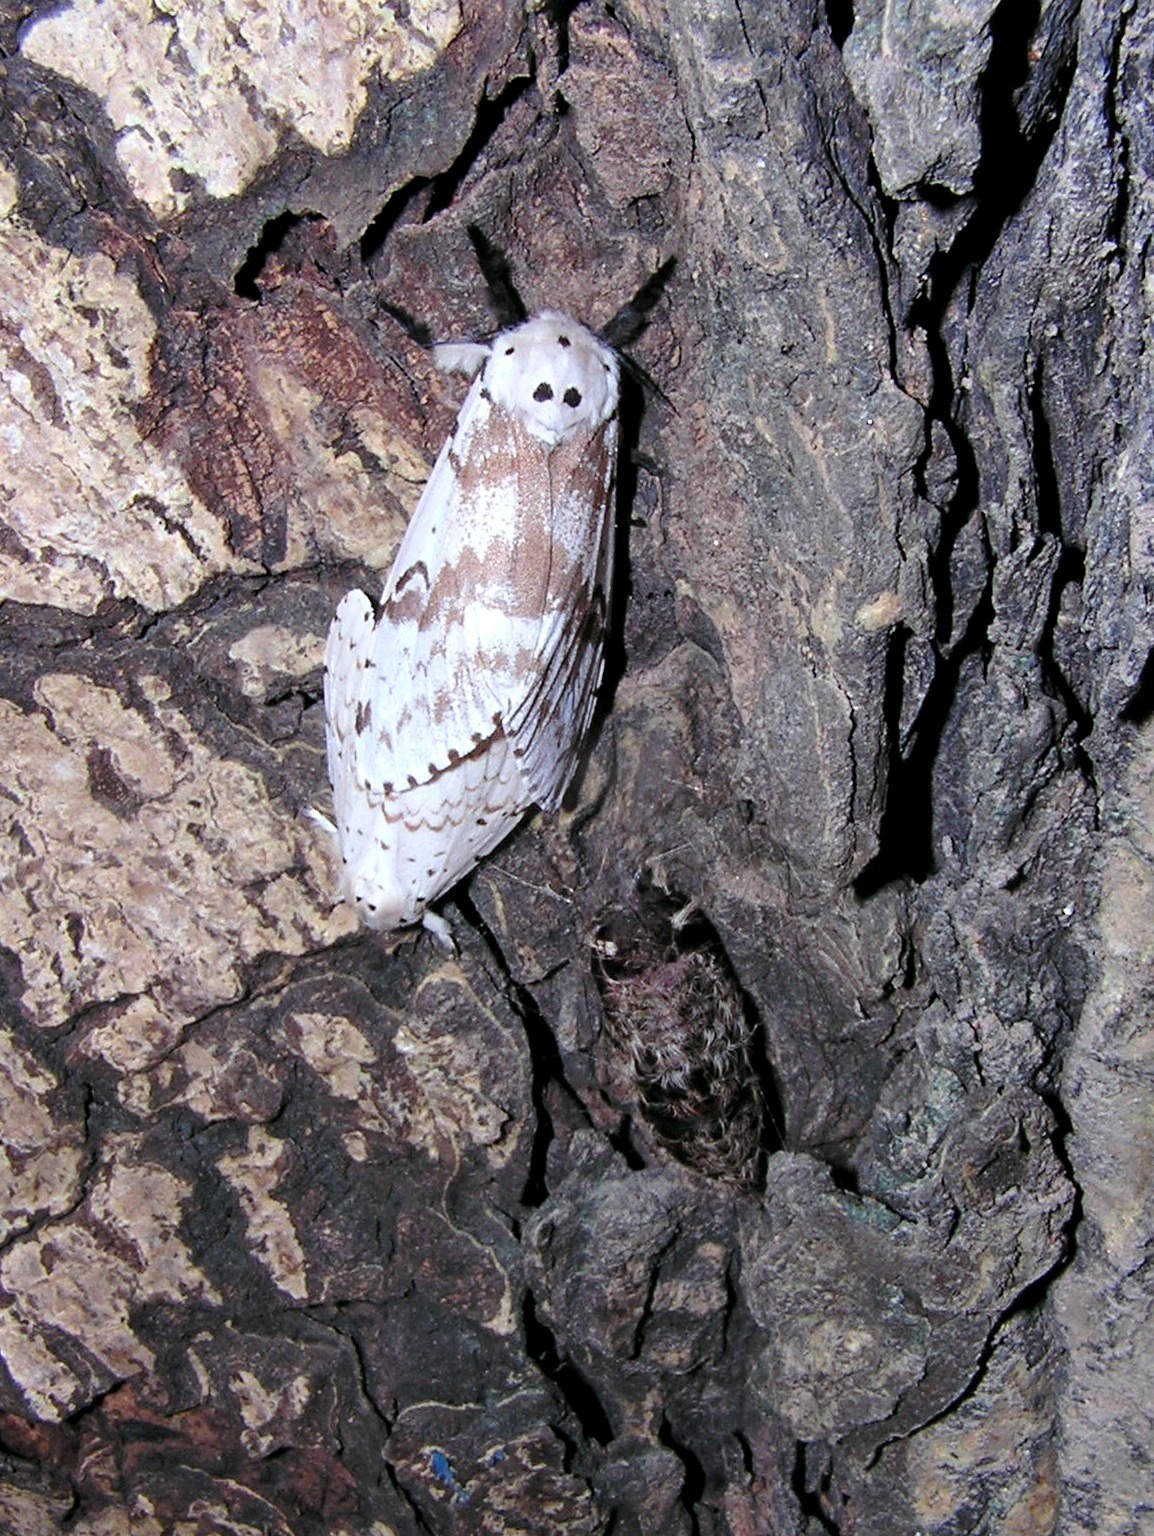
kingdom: Animalia
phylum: Arthropoda
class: Insecta
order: Lepidoptera
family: Erebidae
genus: Lymantria
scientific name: Lymantria plumbalis
